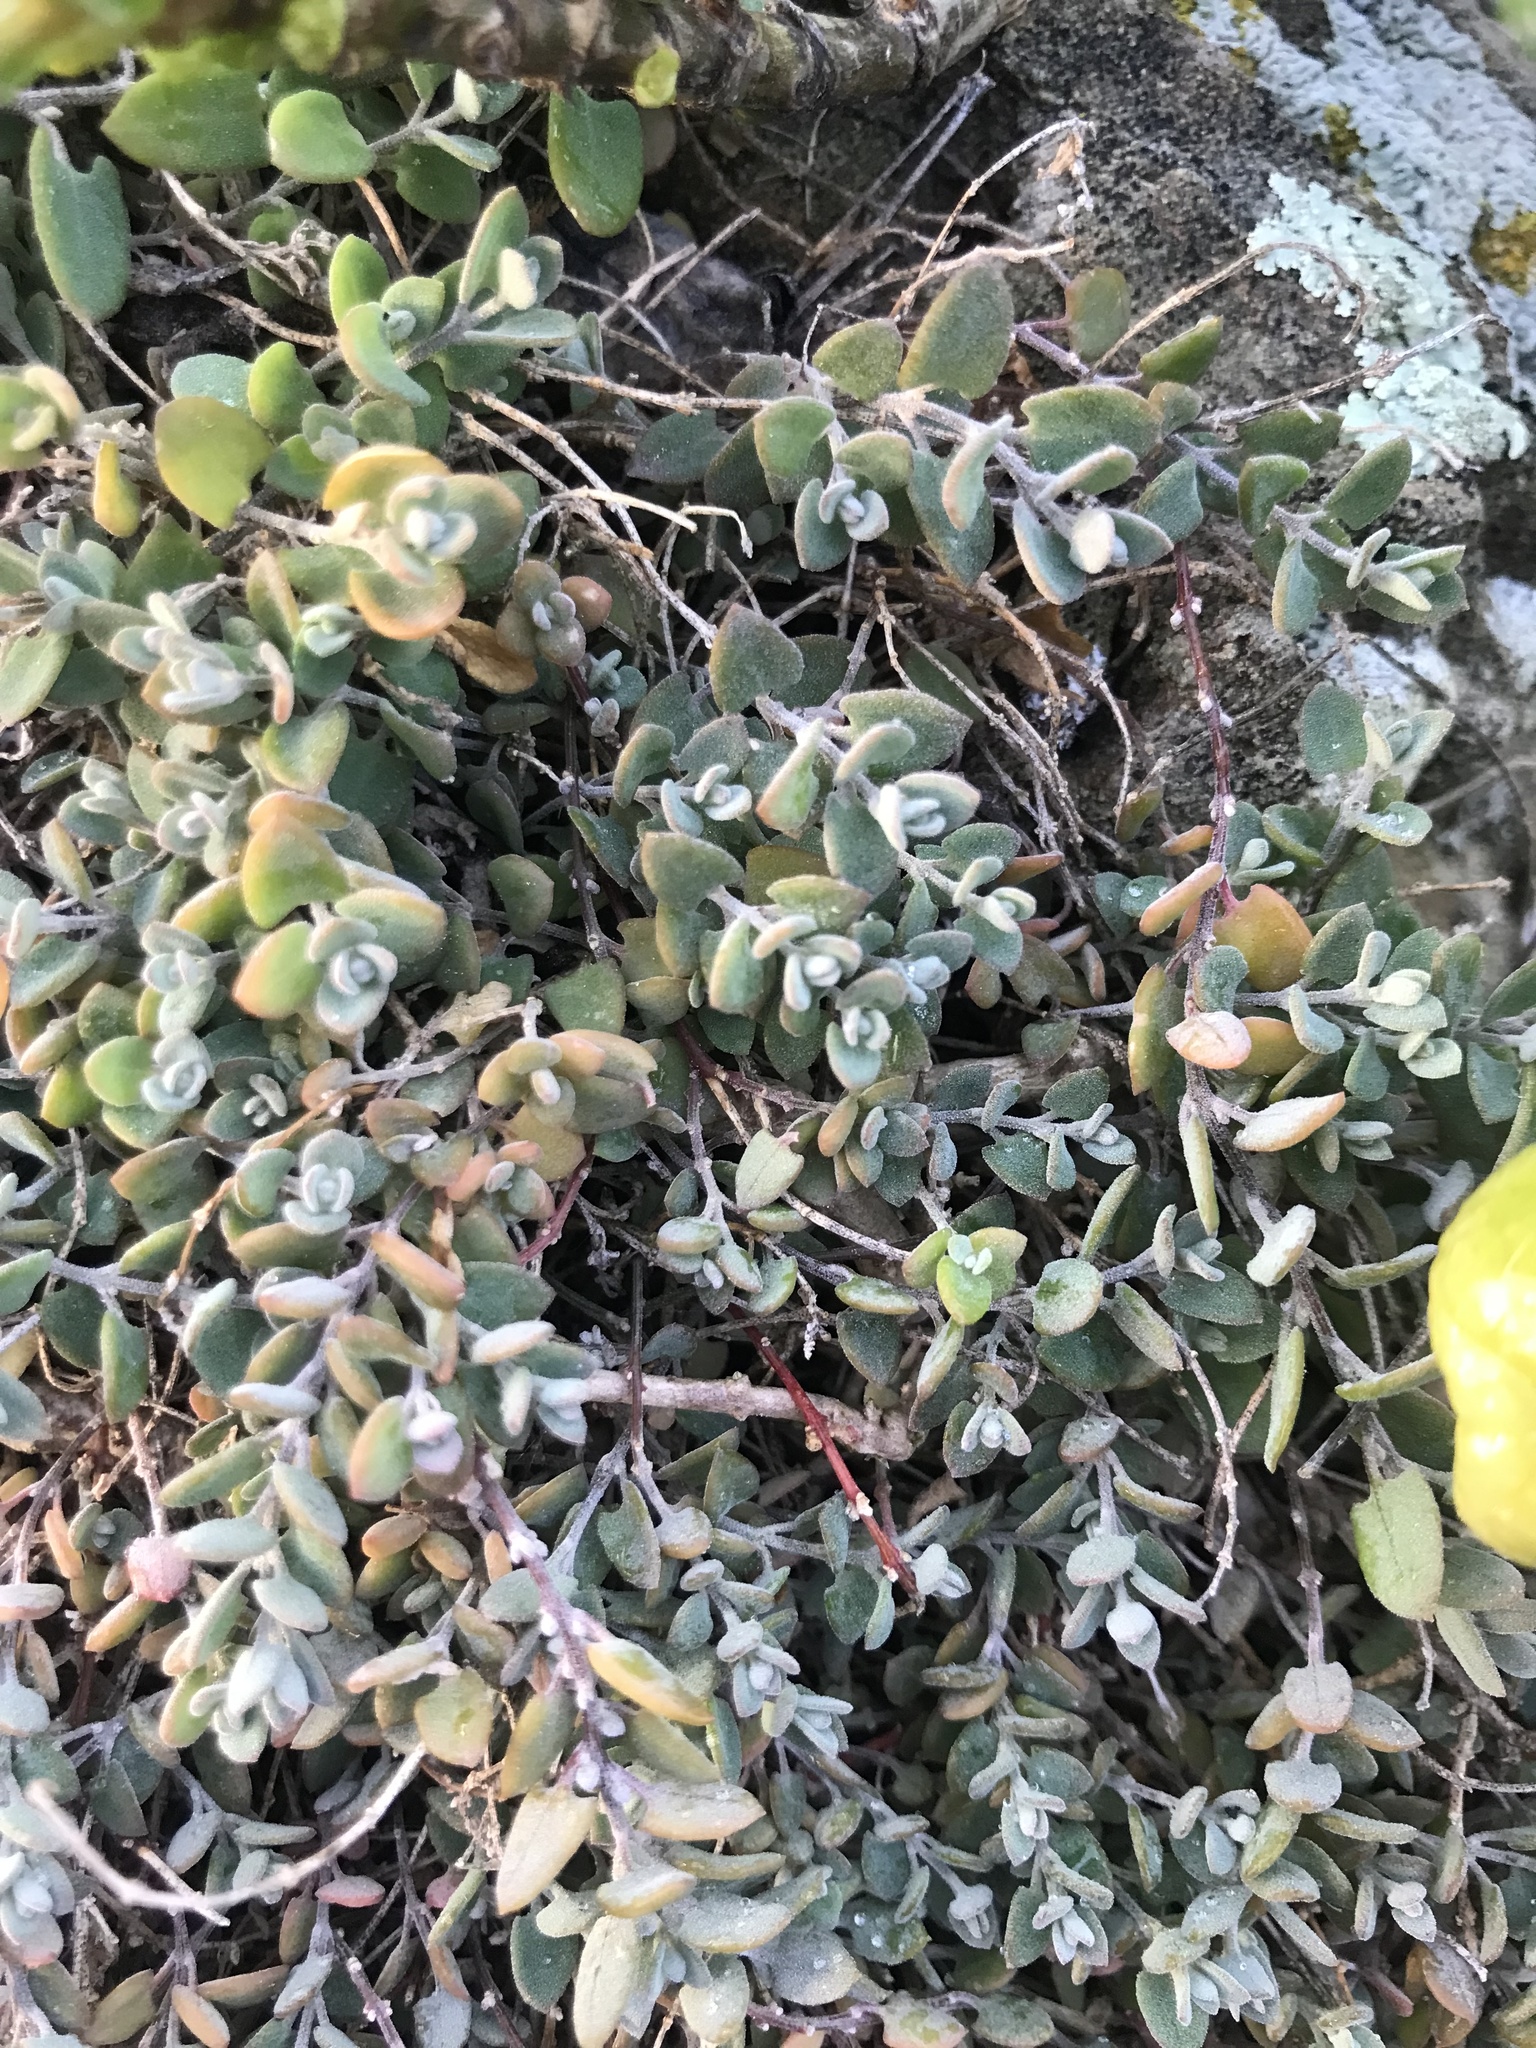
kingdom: Plantae
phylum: Tracheophyta
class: Magnoliopsida
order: Caryophyllales
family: Amaranthaceae
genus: Chenopodium
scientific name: Chenopodium triandrum
